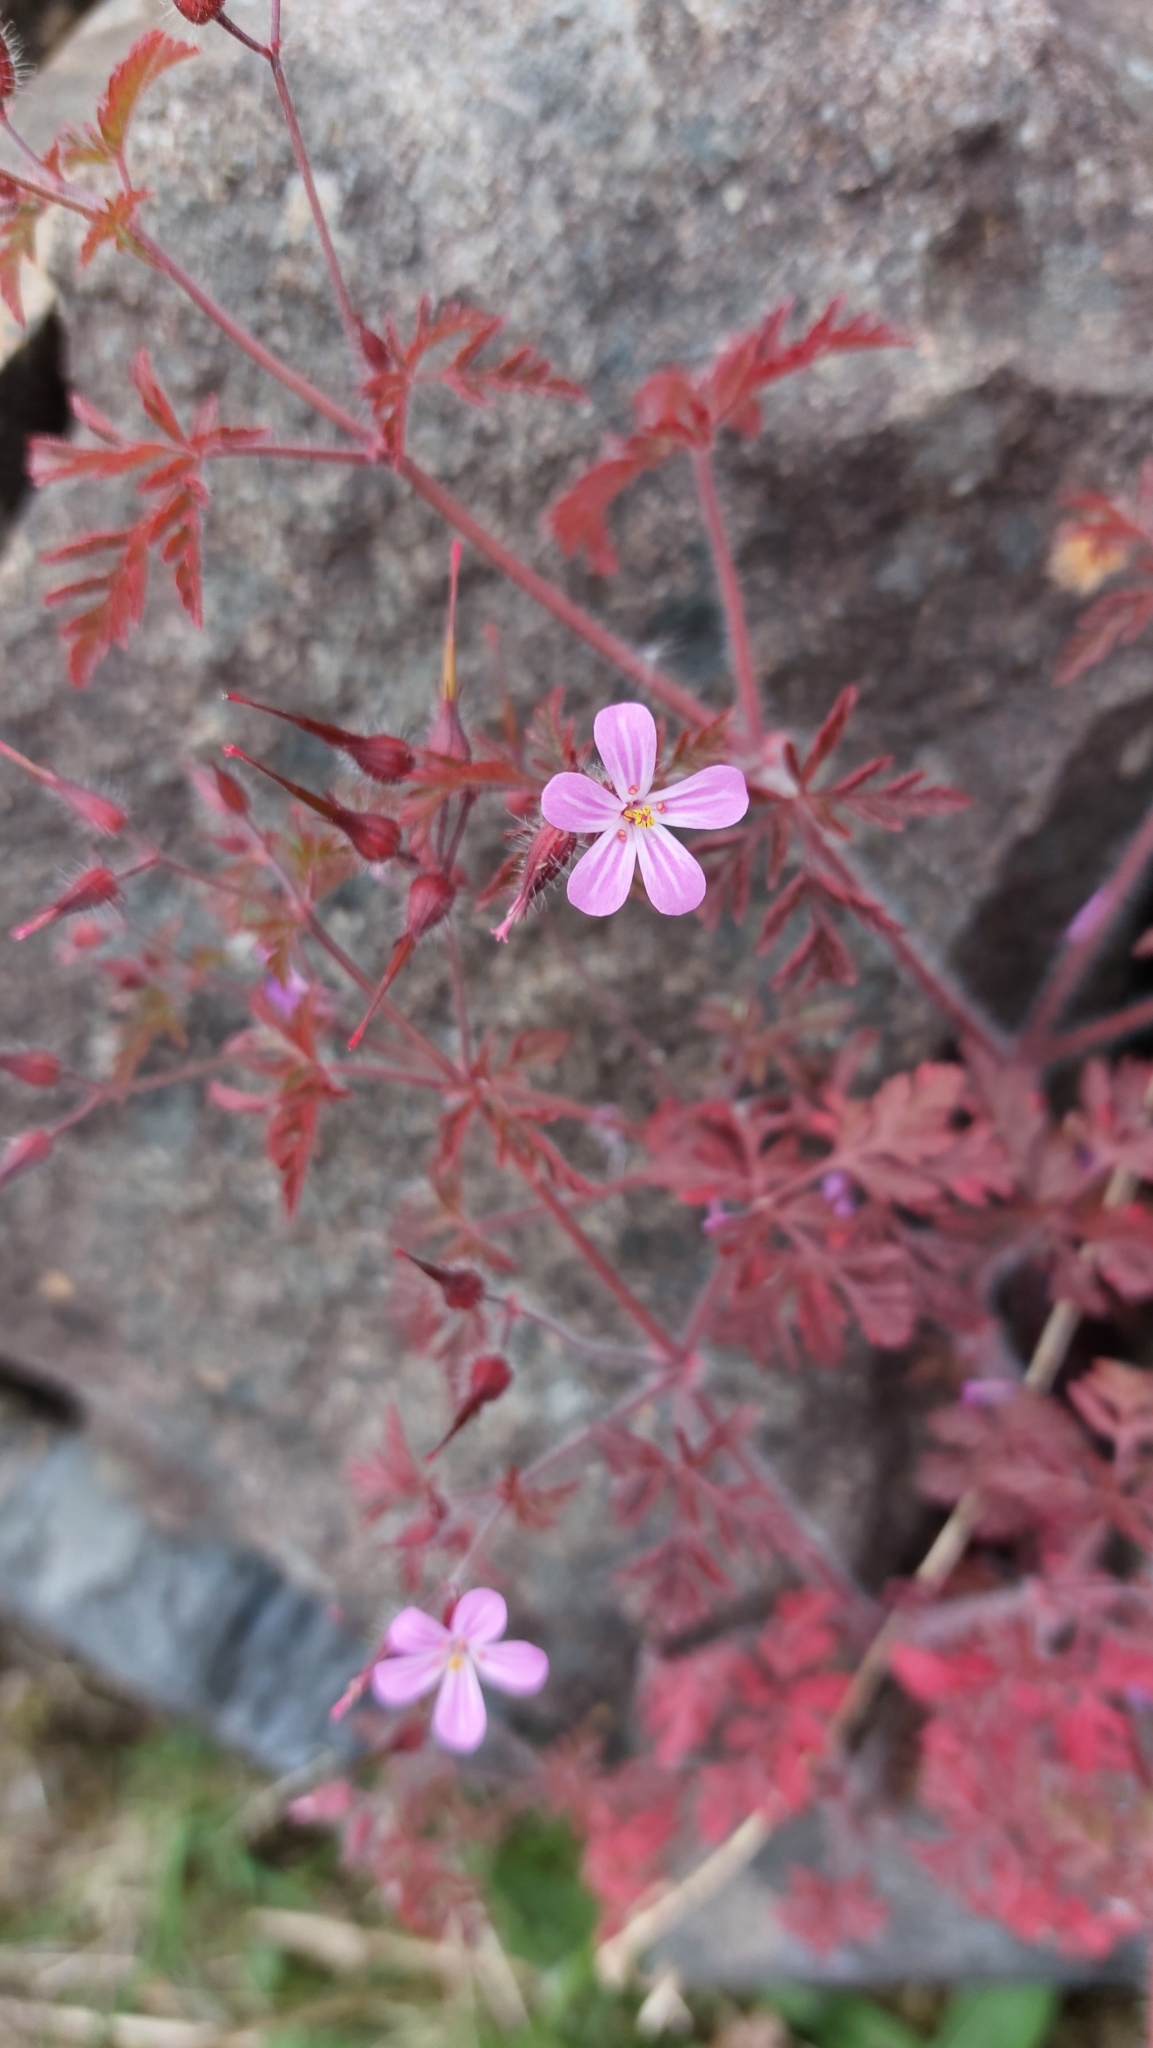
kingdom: Plantae
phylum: Tracheophyta
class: Magnoliopsida
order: Geraniales
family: Geraniaceae
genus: Geranium
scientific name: Geranium robertianum
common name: Herb-robert
